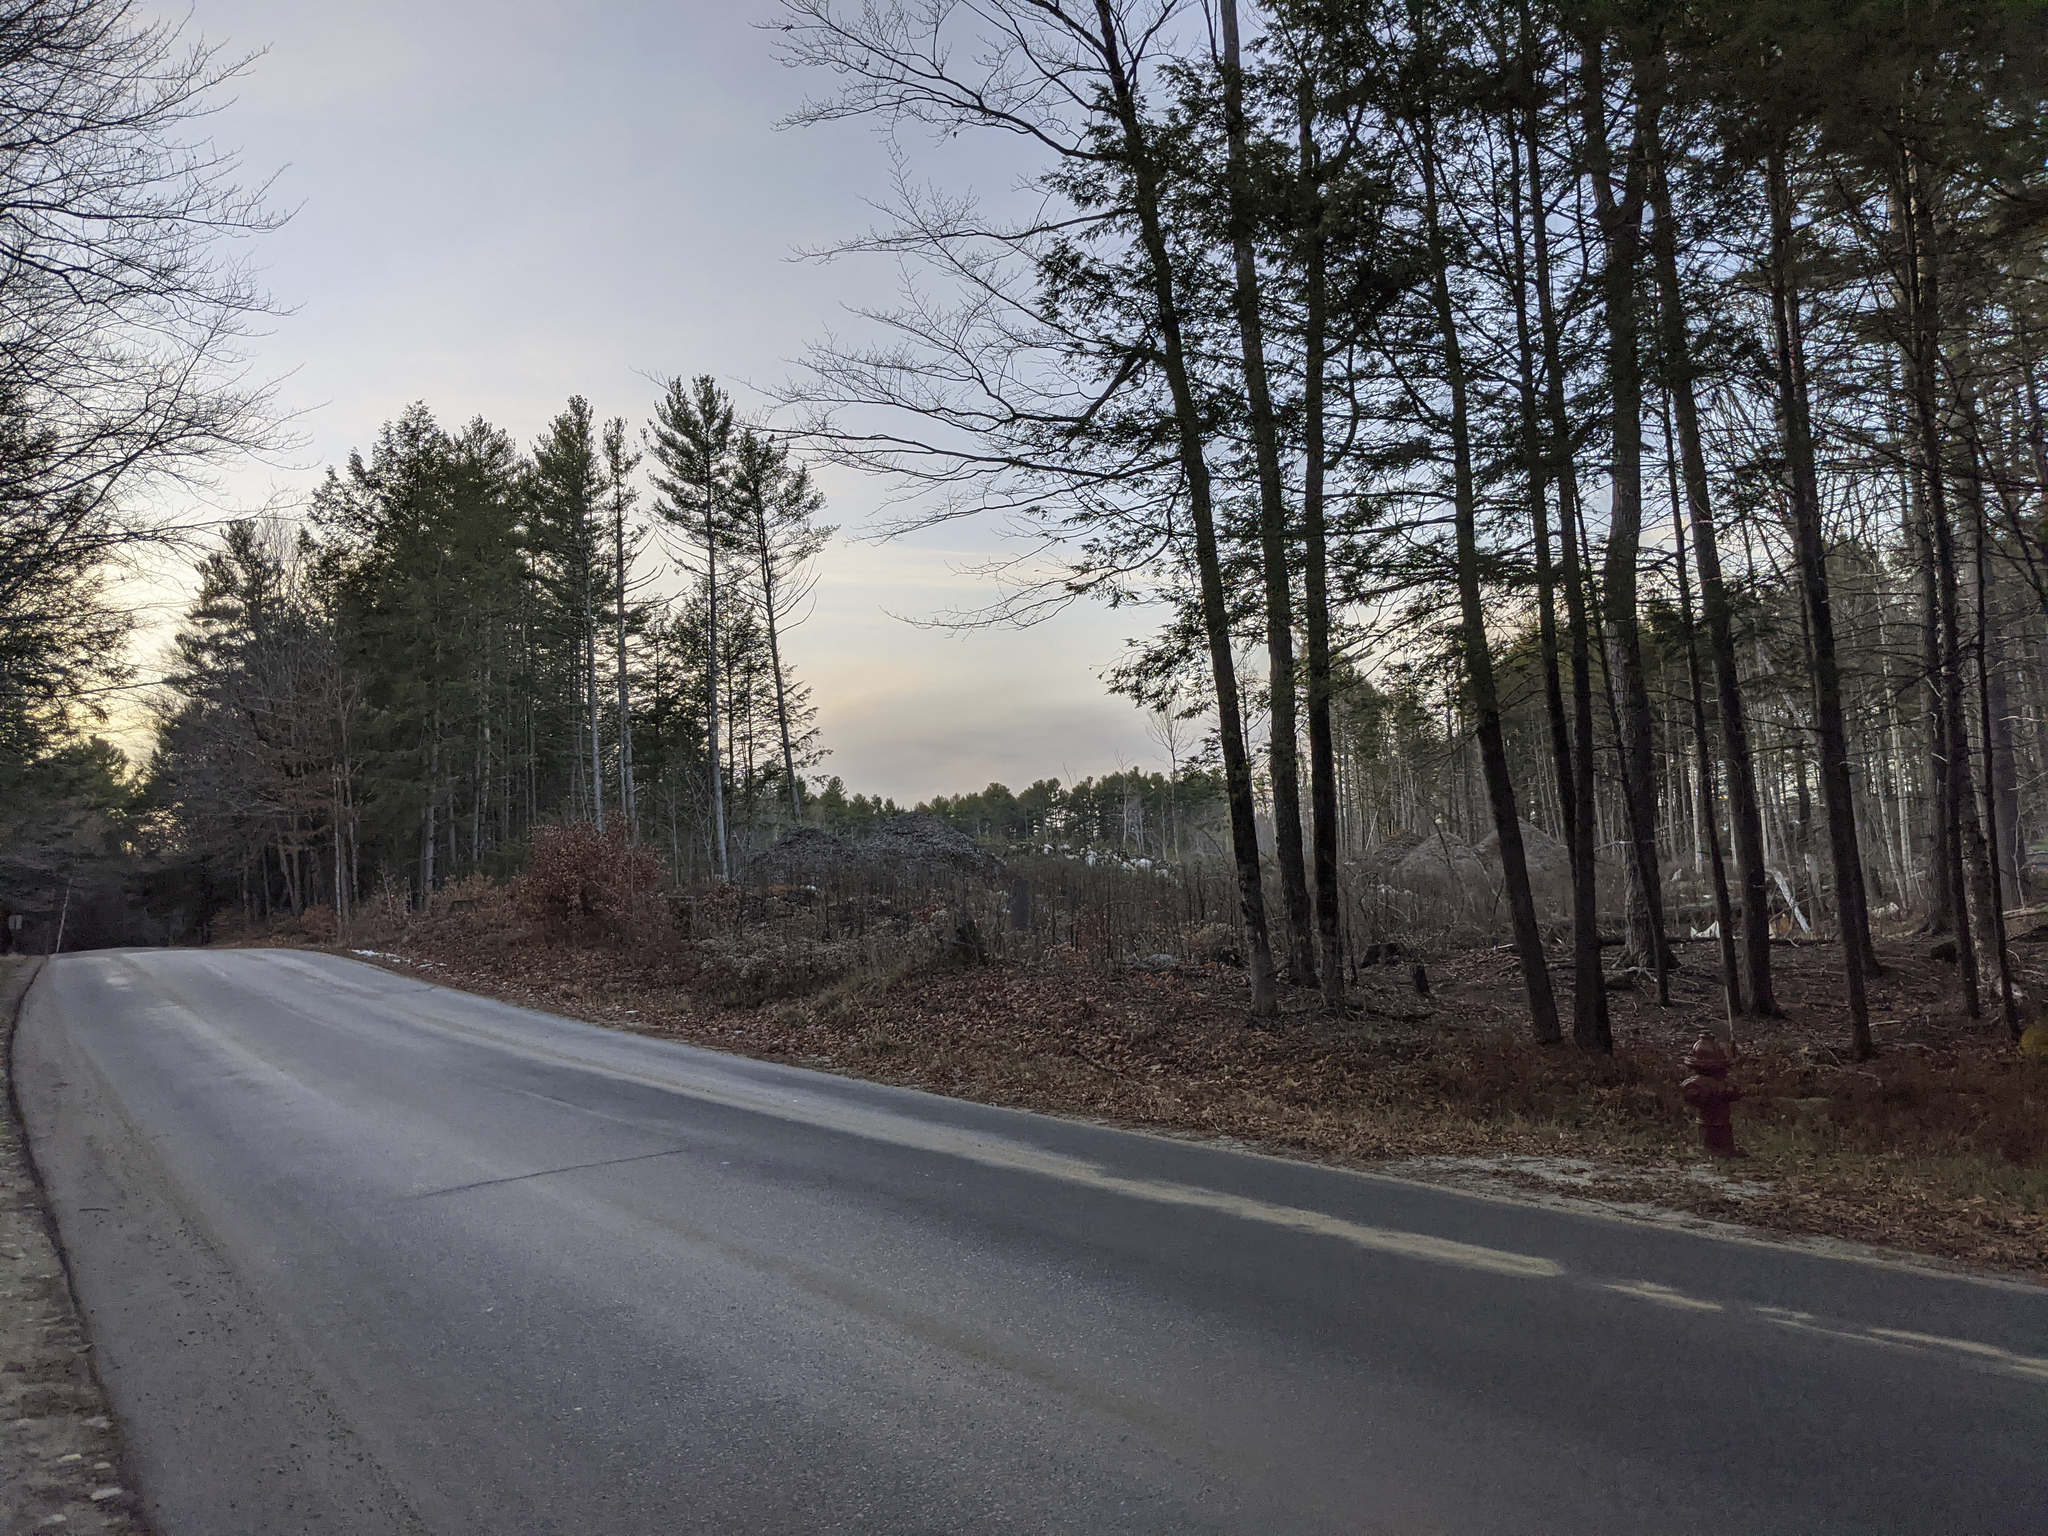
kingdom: Plantae
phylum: Tracheophyta
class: Pinopsida
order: Pinales
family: Pinaceae
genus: Pinus
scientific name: Pinus strobus
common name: Weymouth pine
